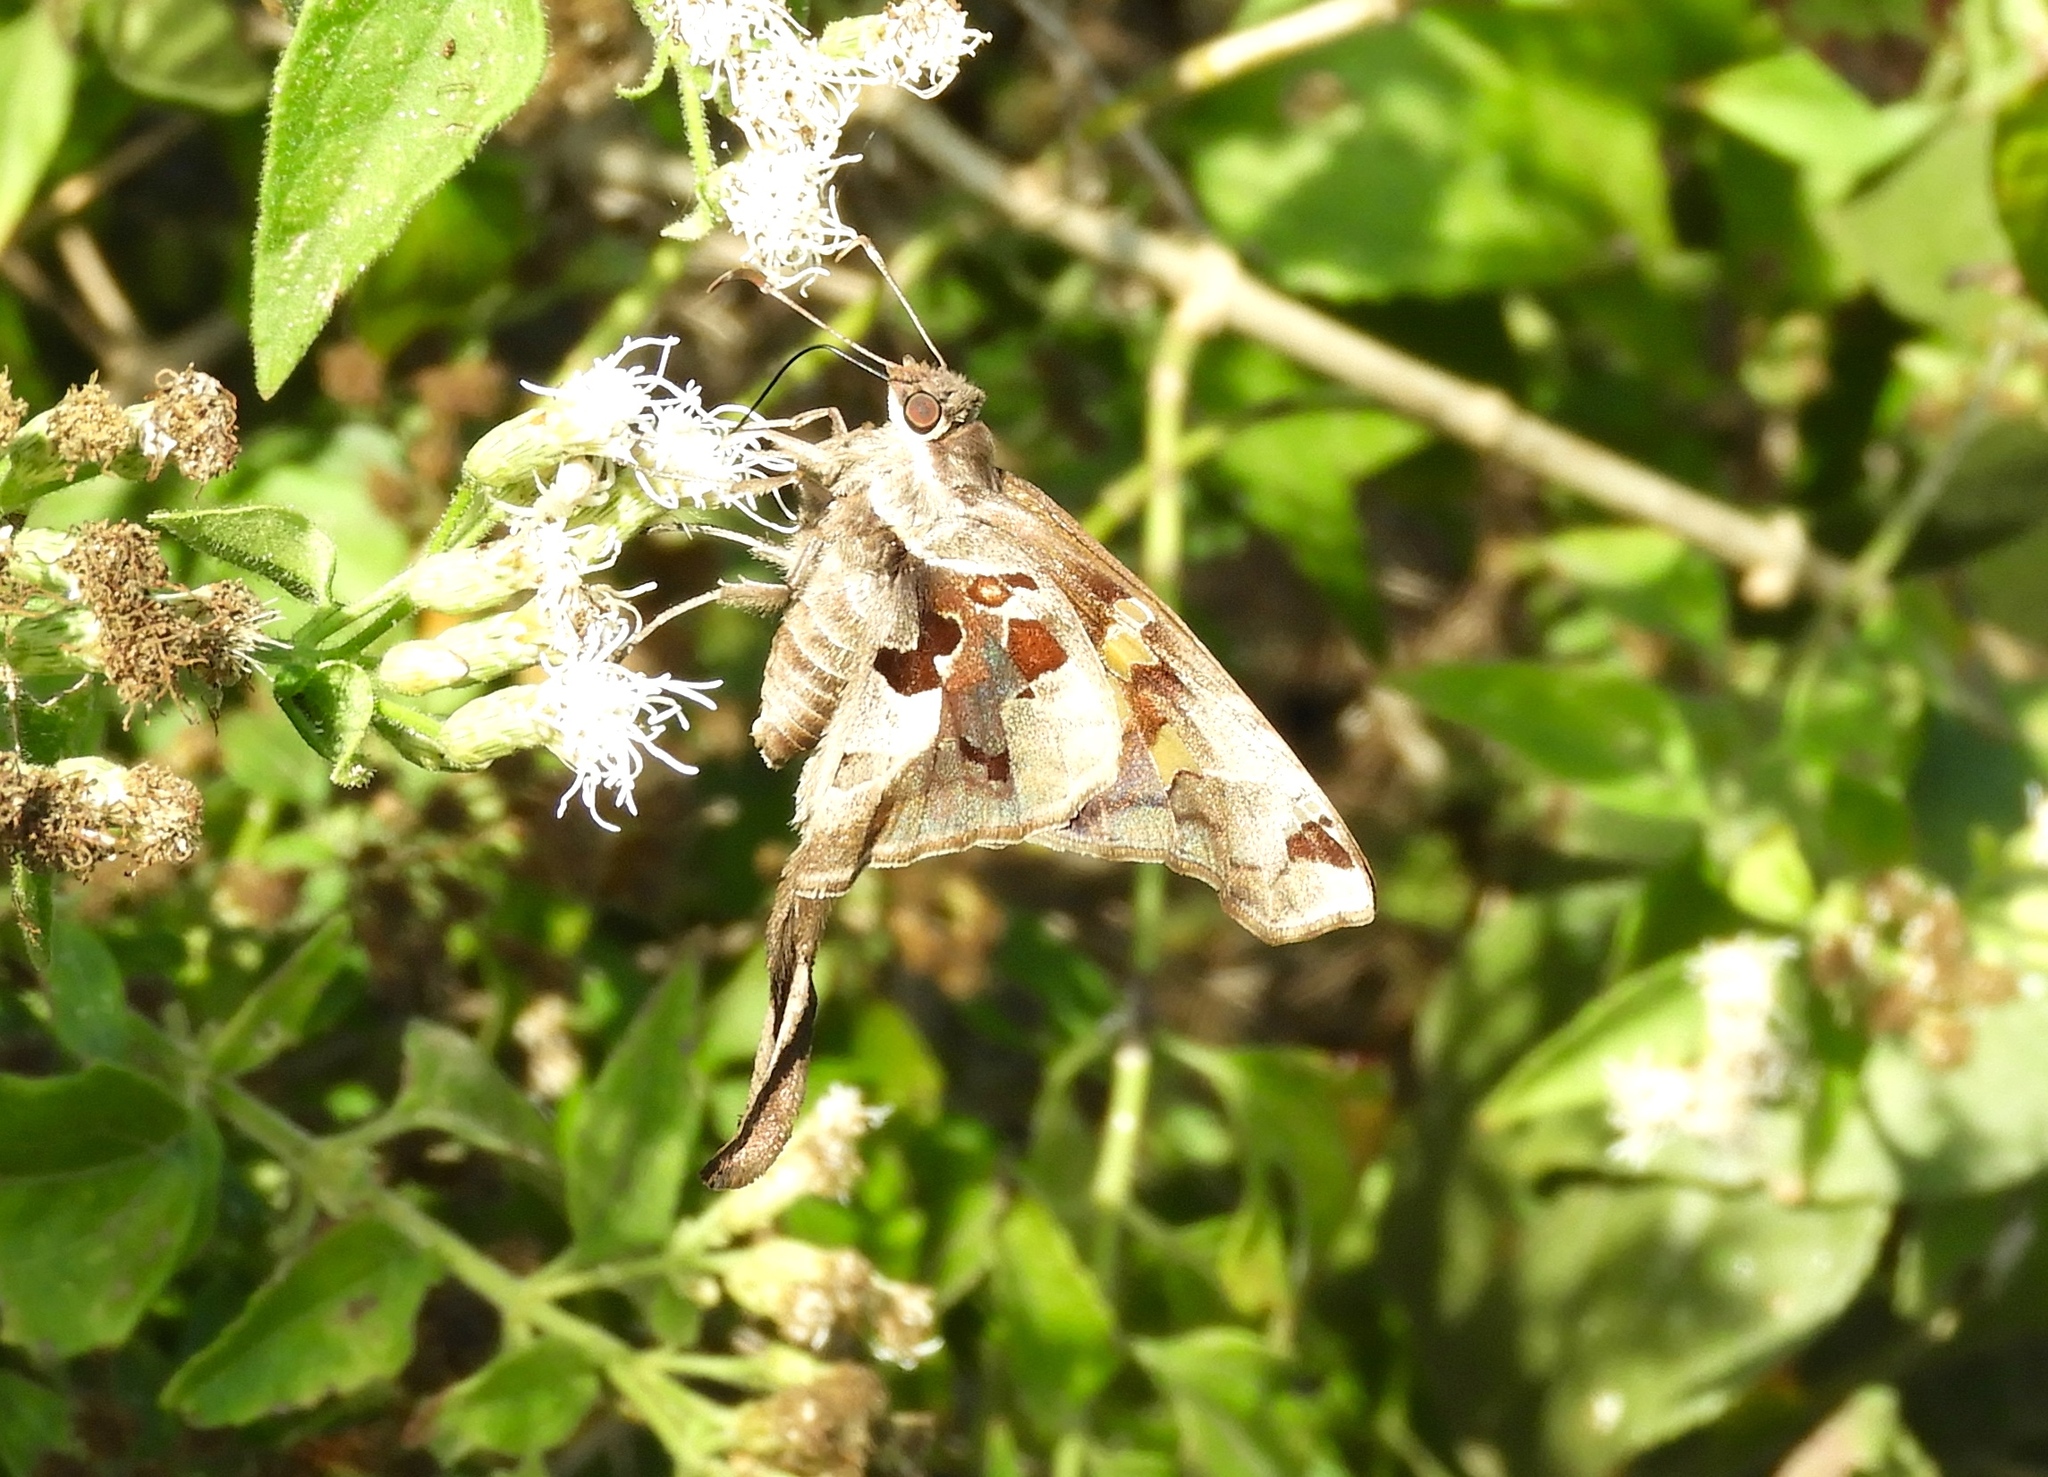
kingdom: Animalia
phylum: Arthropoda
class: Insecta
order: Lepidoptera
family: Hesperiidae
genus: Chioides
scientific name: Chioides zilpa
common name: Zilpa longtail
